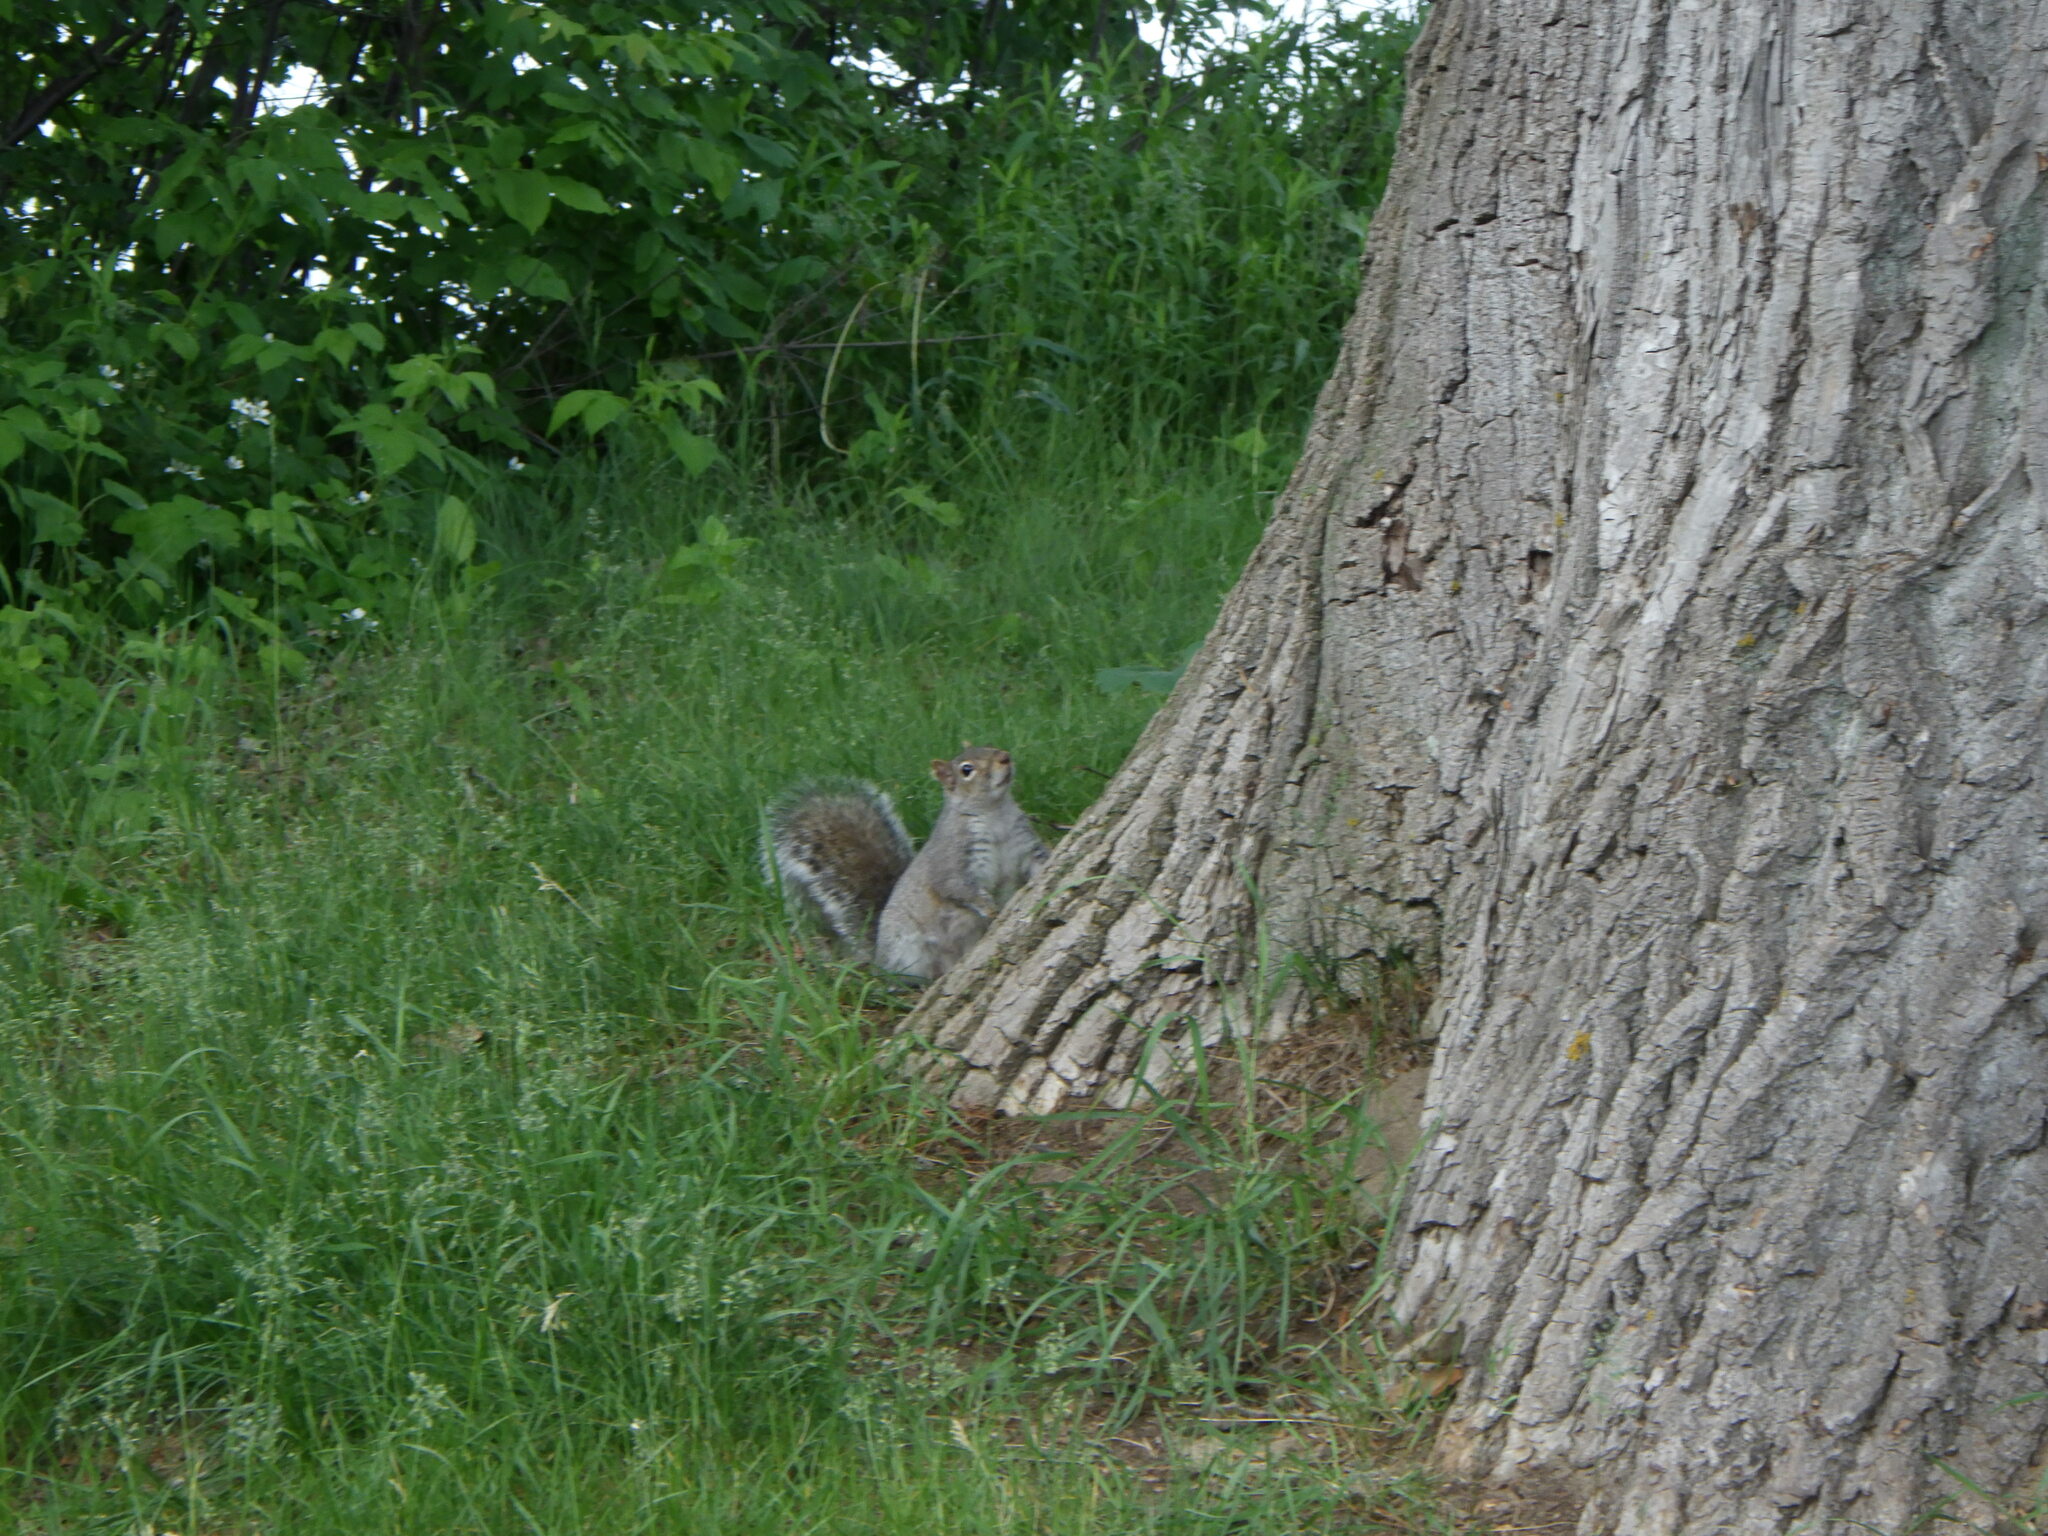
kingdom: Animalia
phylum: Chordata
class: Mammalia
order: Rodentia
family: Sciuridae
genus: Sciurus
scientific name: Sciurus carolinensis
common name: Eastern gray squirrel
